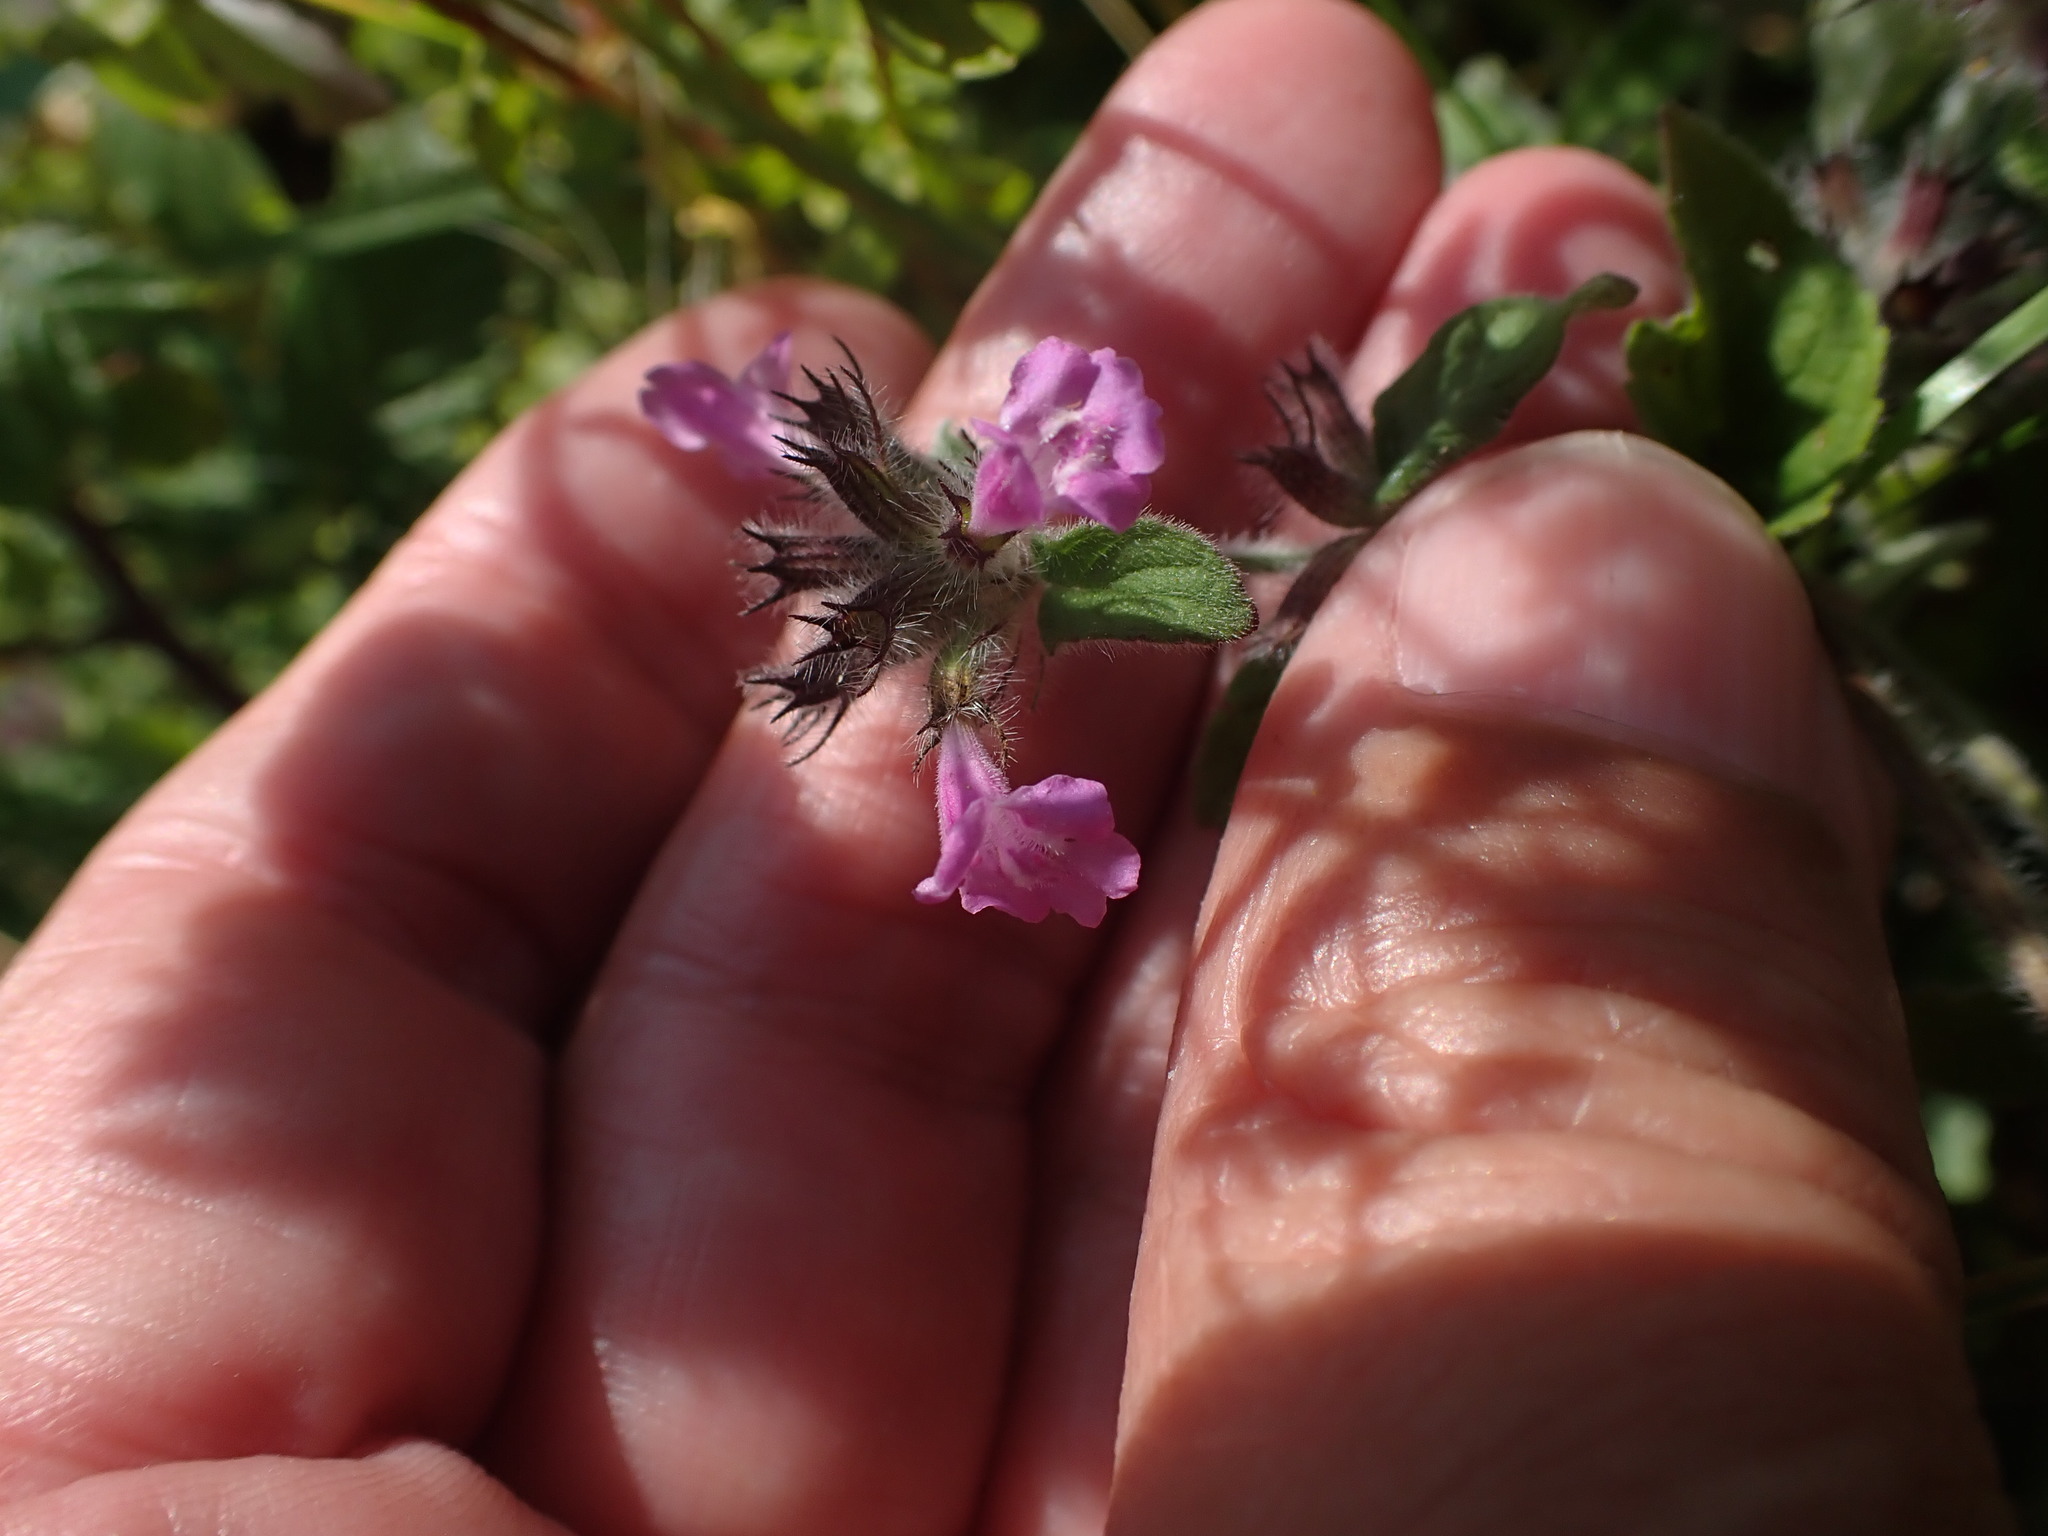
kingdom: Plantae
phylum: Tracheophyta
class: Magnoliopsida
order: Lamiales
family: Lamiaceae
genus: Clinopodium
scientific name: Clinopodium vulgare
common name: Wild basil
